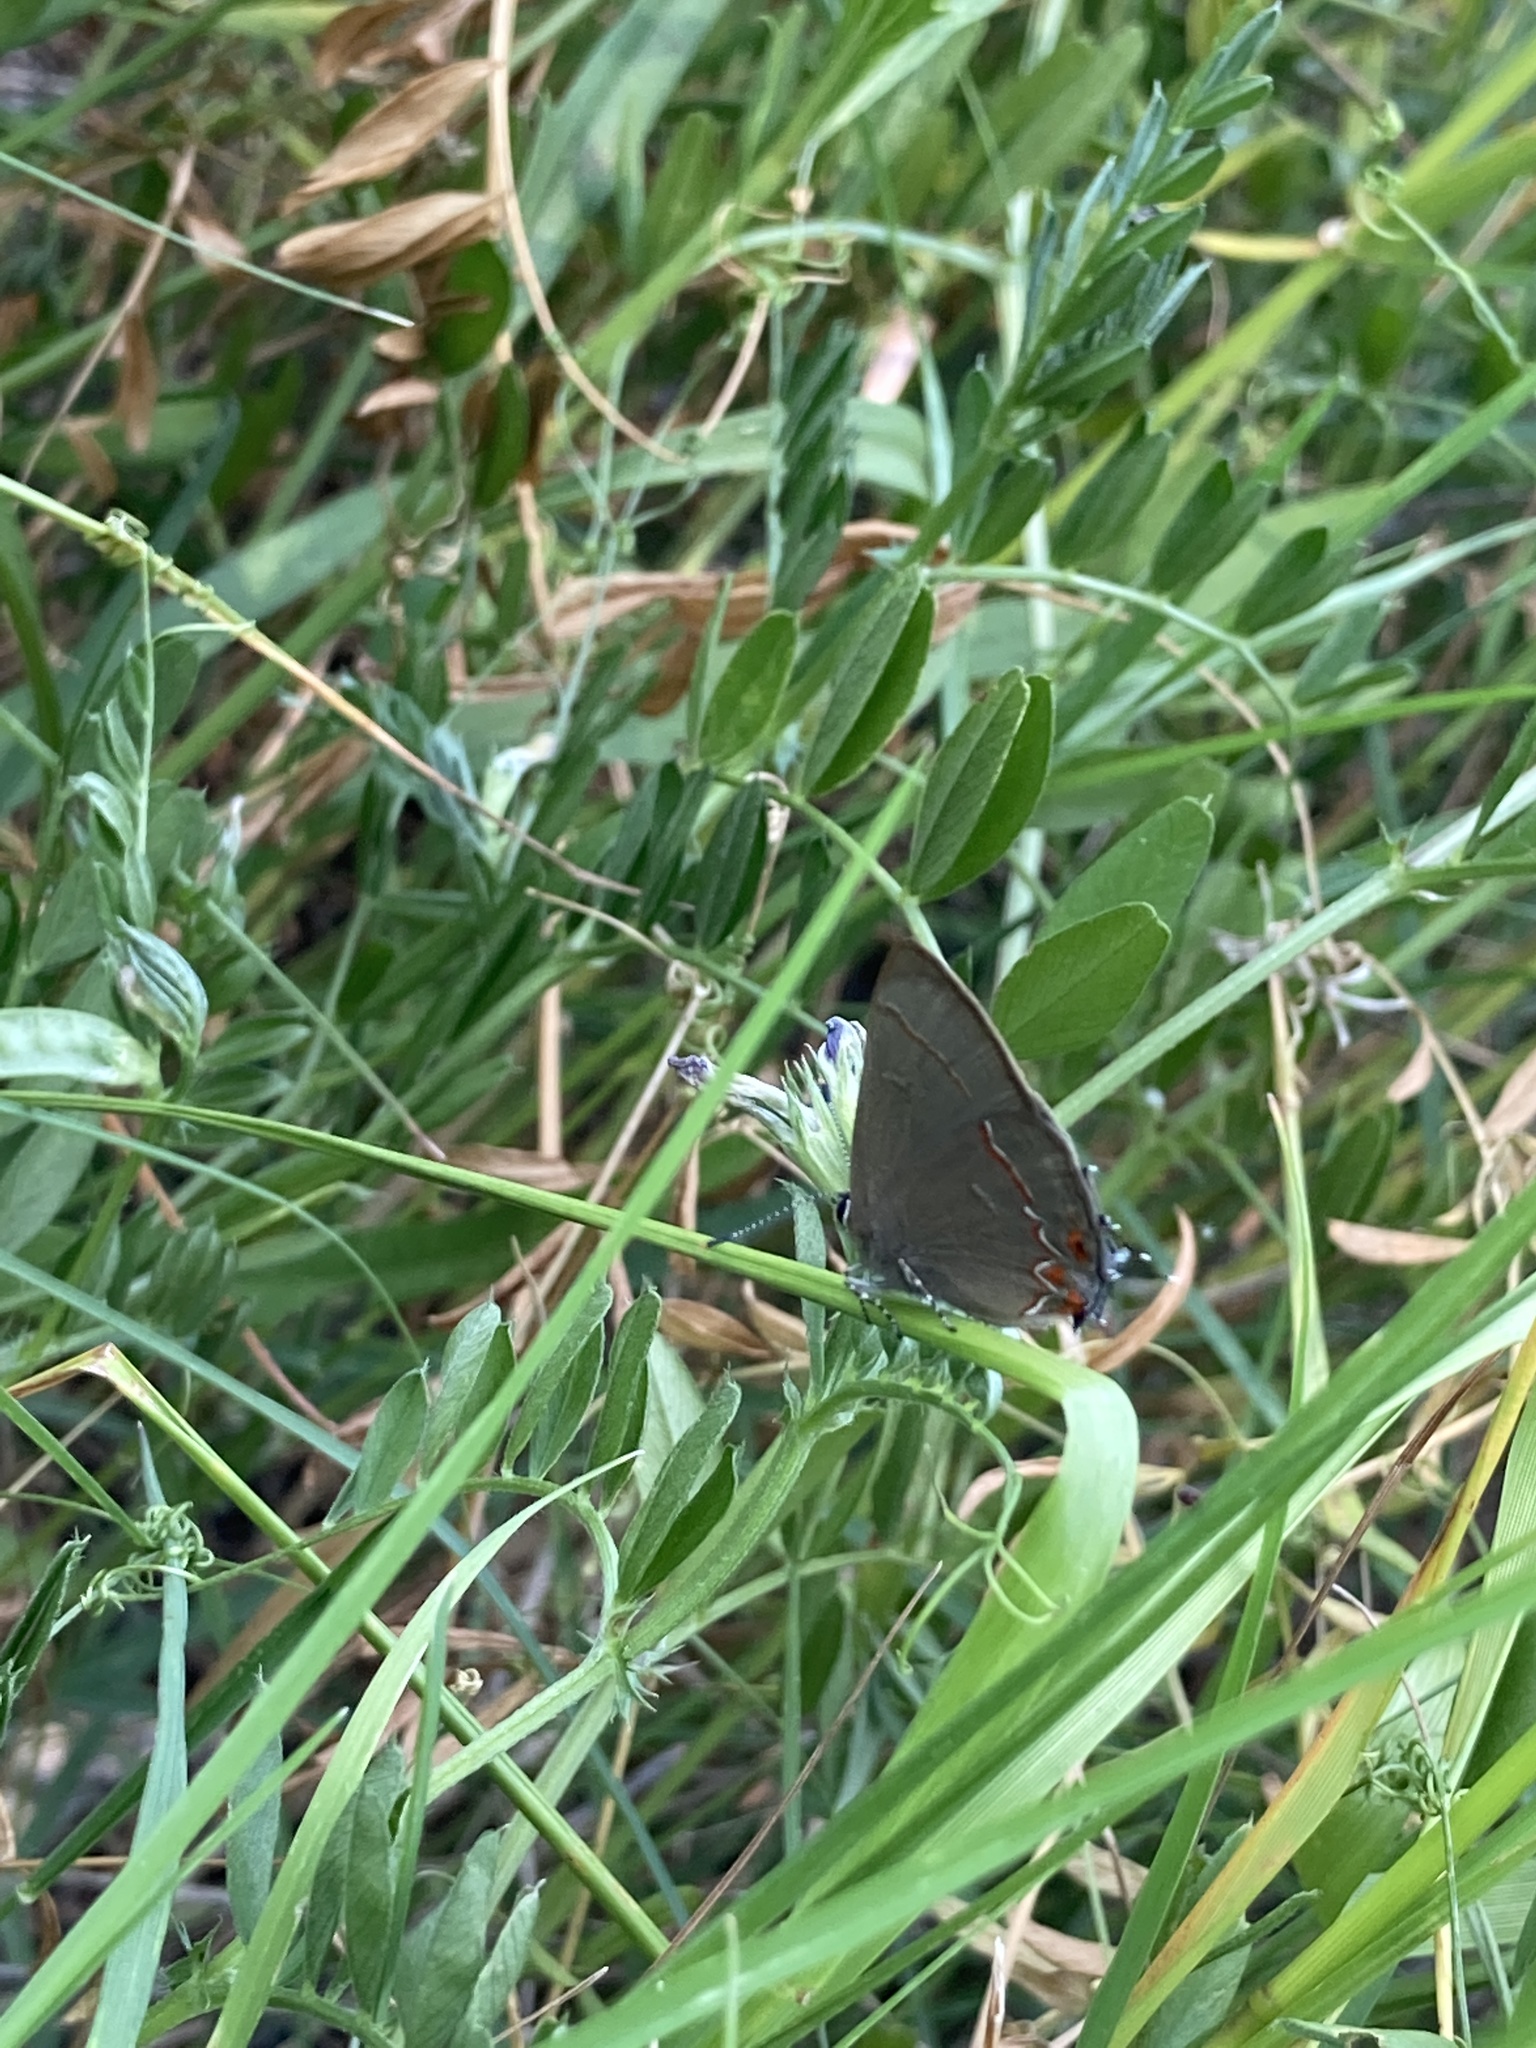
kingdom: Animalia
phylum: Arthropoda
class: Insecta
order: Lepidoptera
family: Lycaenidae
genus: Calycopis
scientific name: Calycopis caulonia
